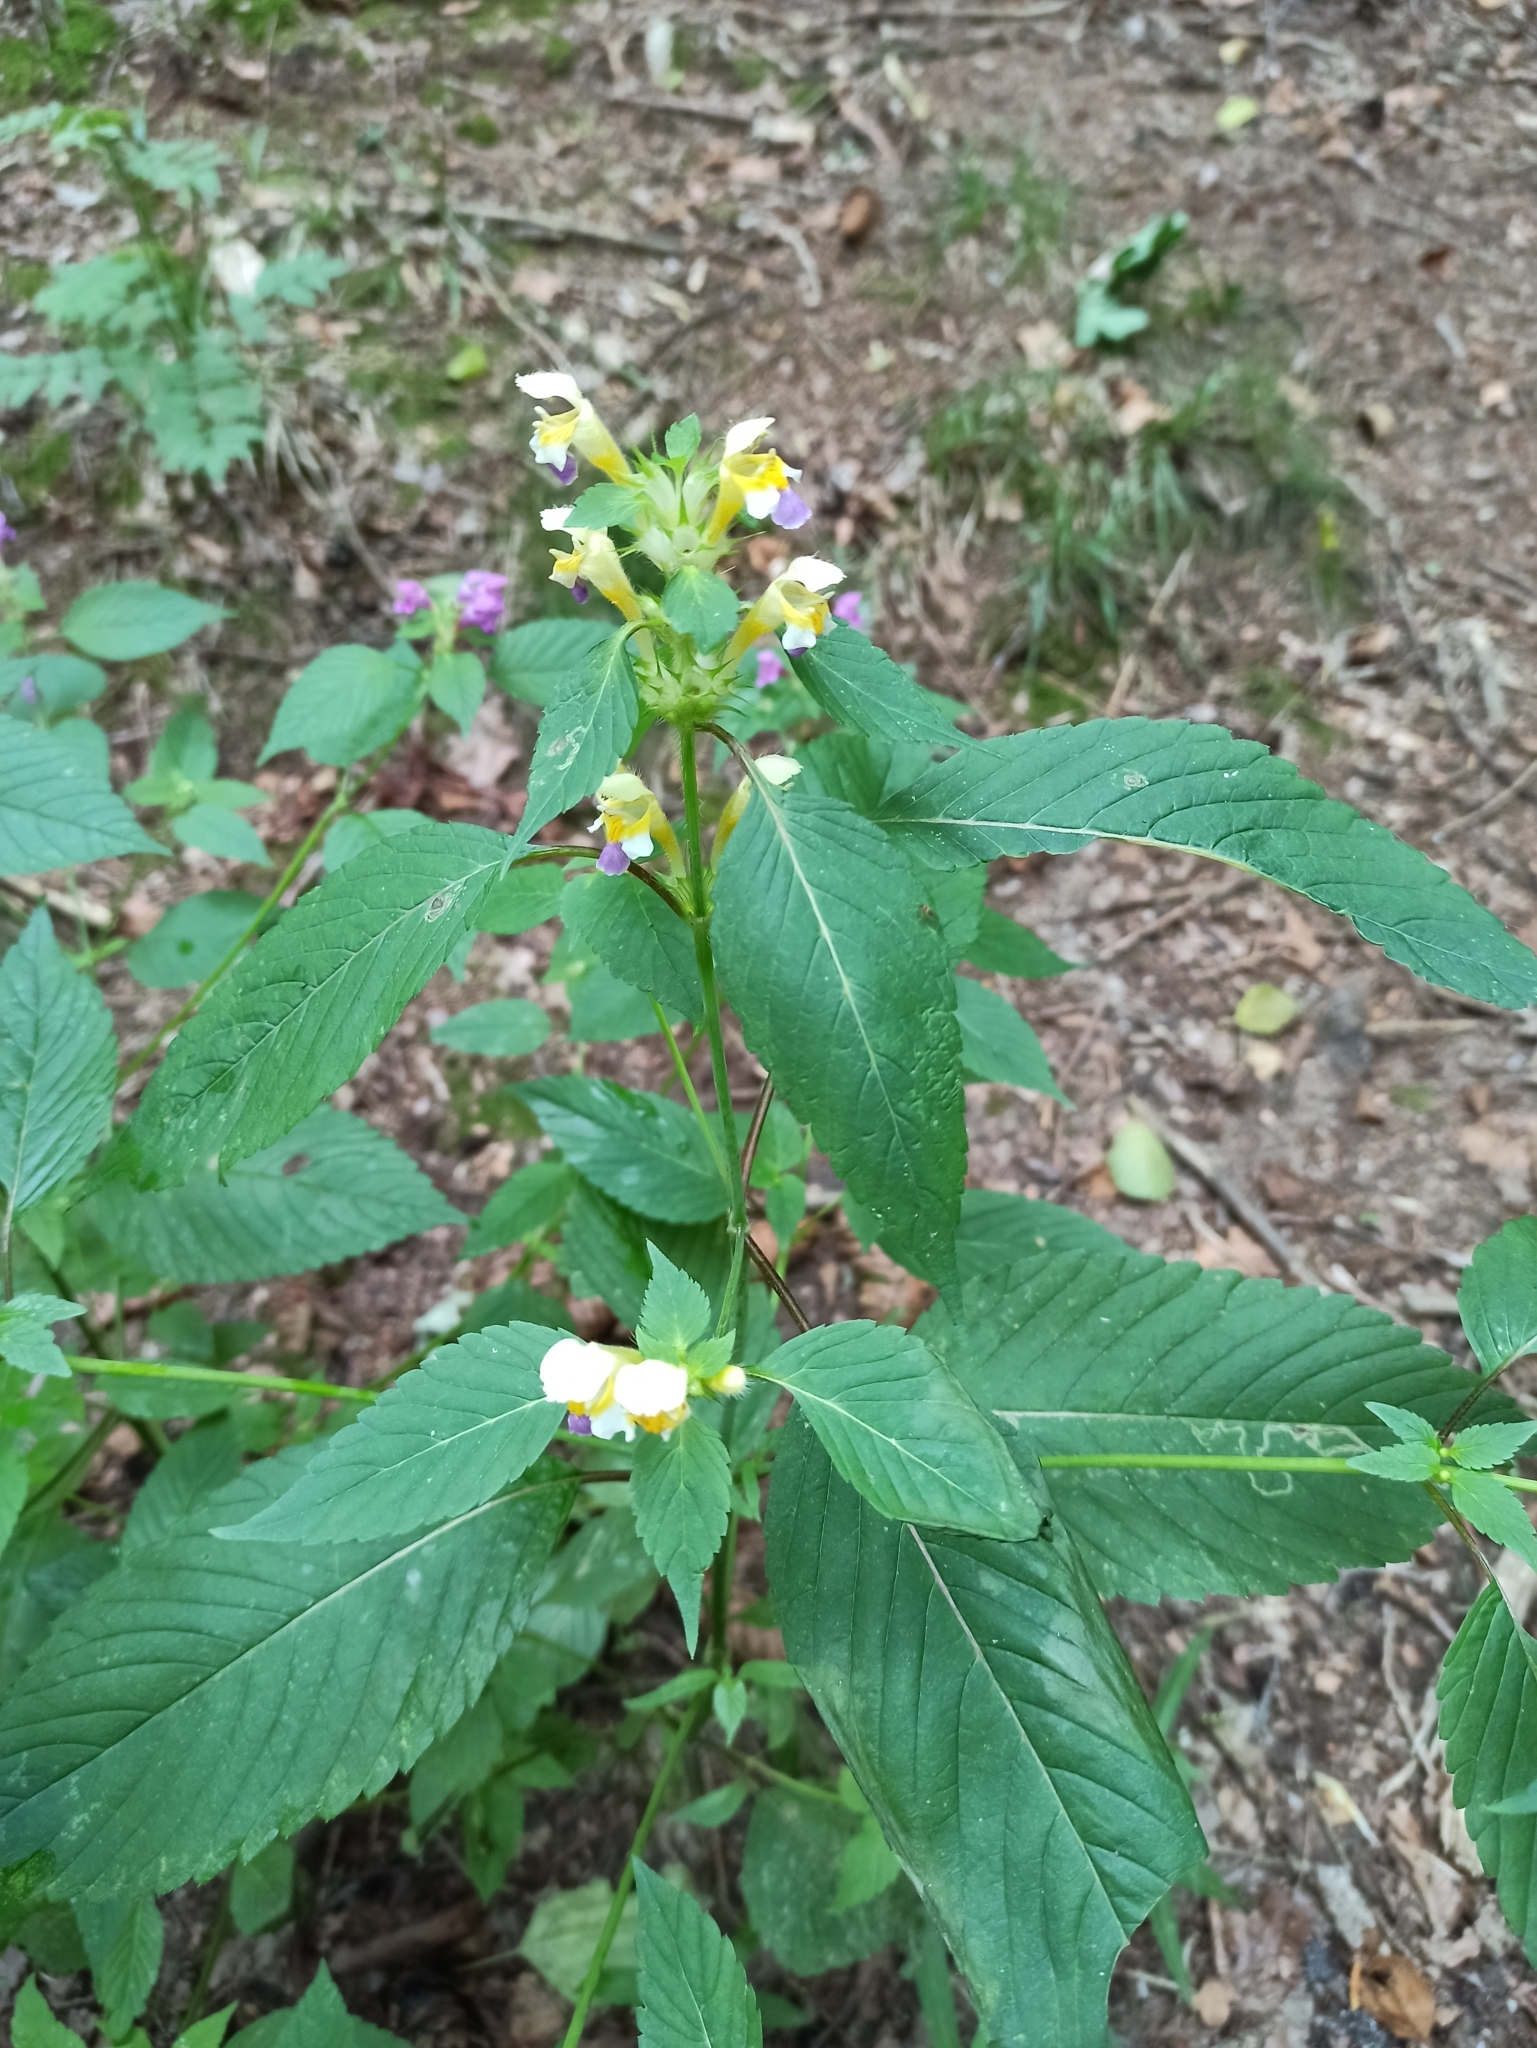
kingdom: Plantae
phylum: Tracheophyta
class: Magnoliopsida
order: Lamiales
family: Lamiaceae
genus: Galeopsis
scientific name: Galeopsis speciosa
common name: Large-flowered hemp-nettle
